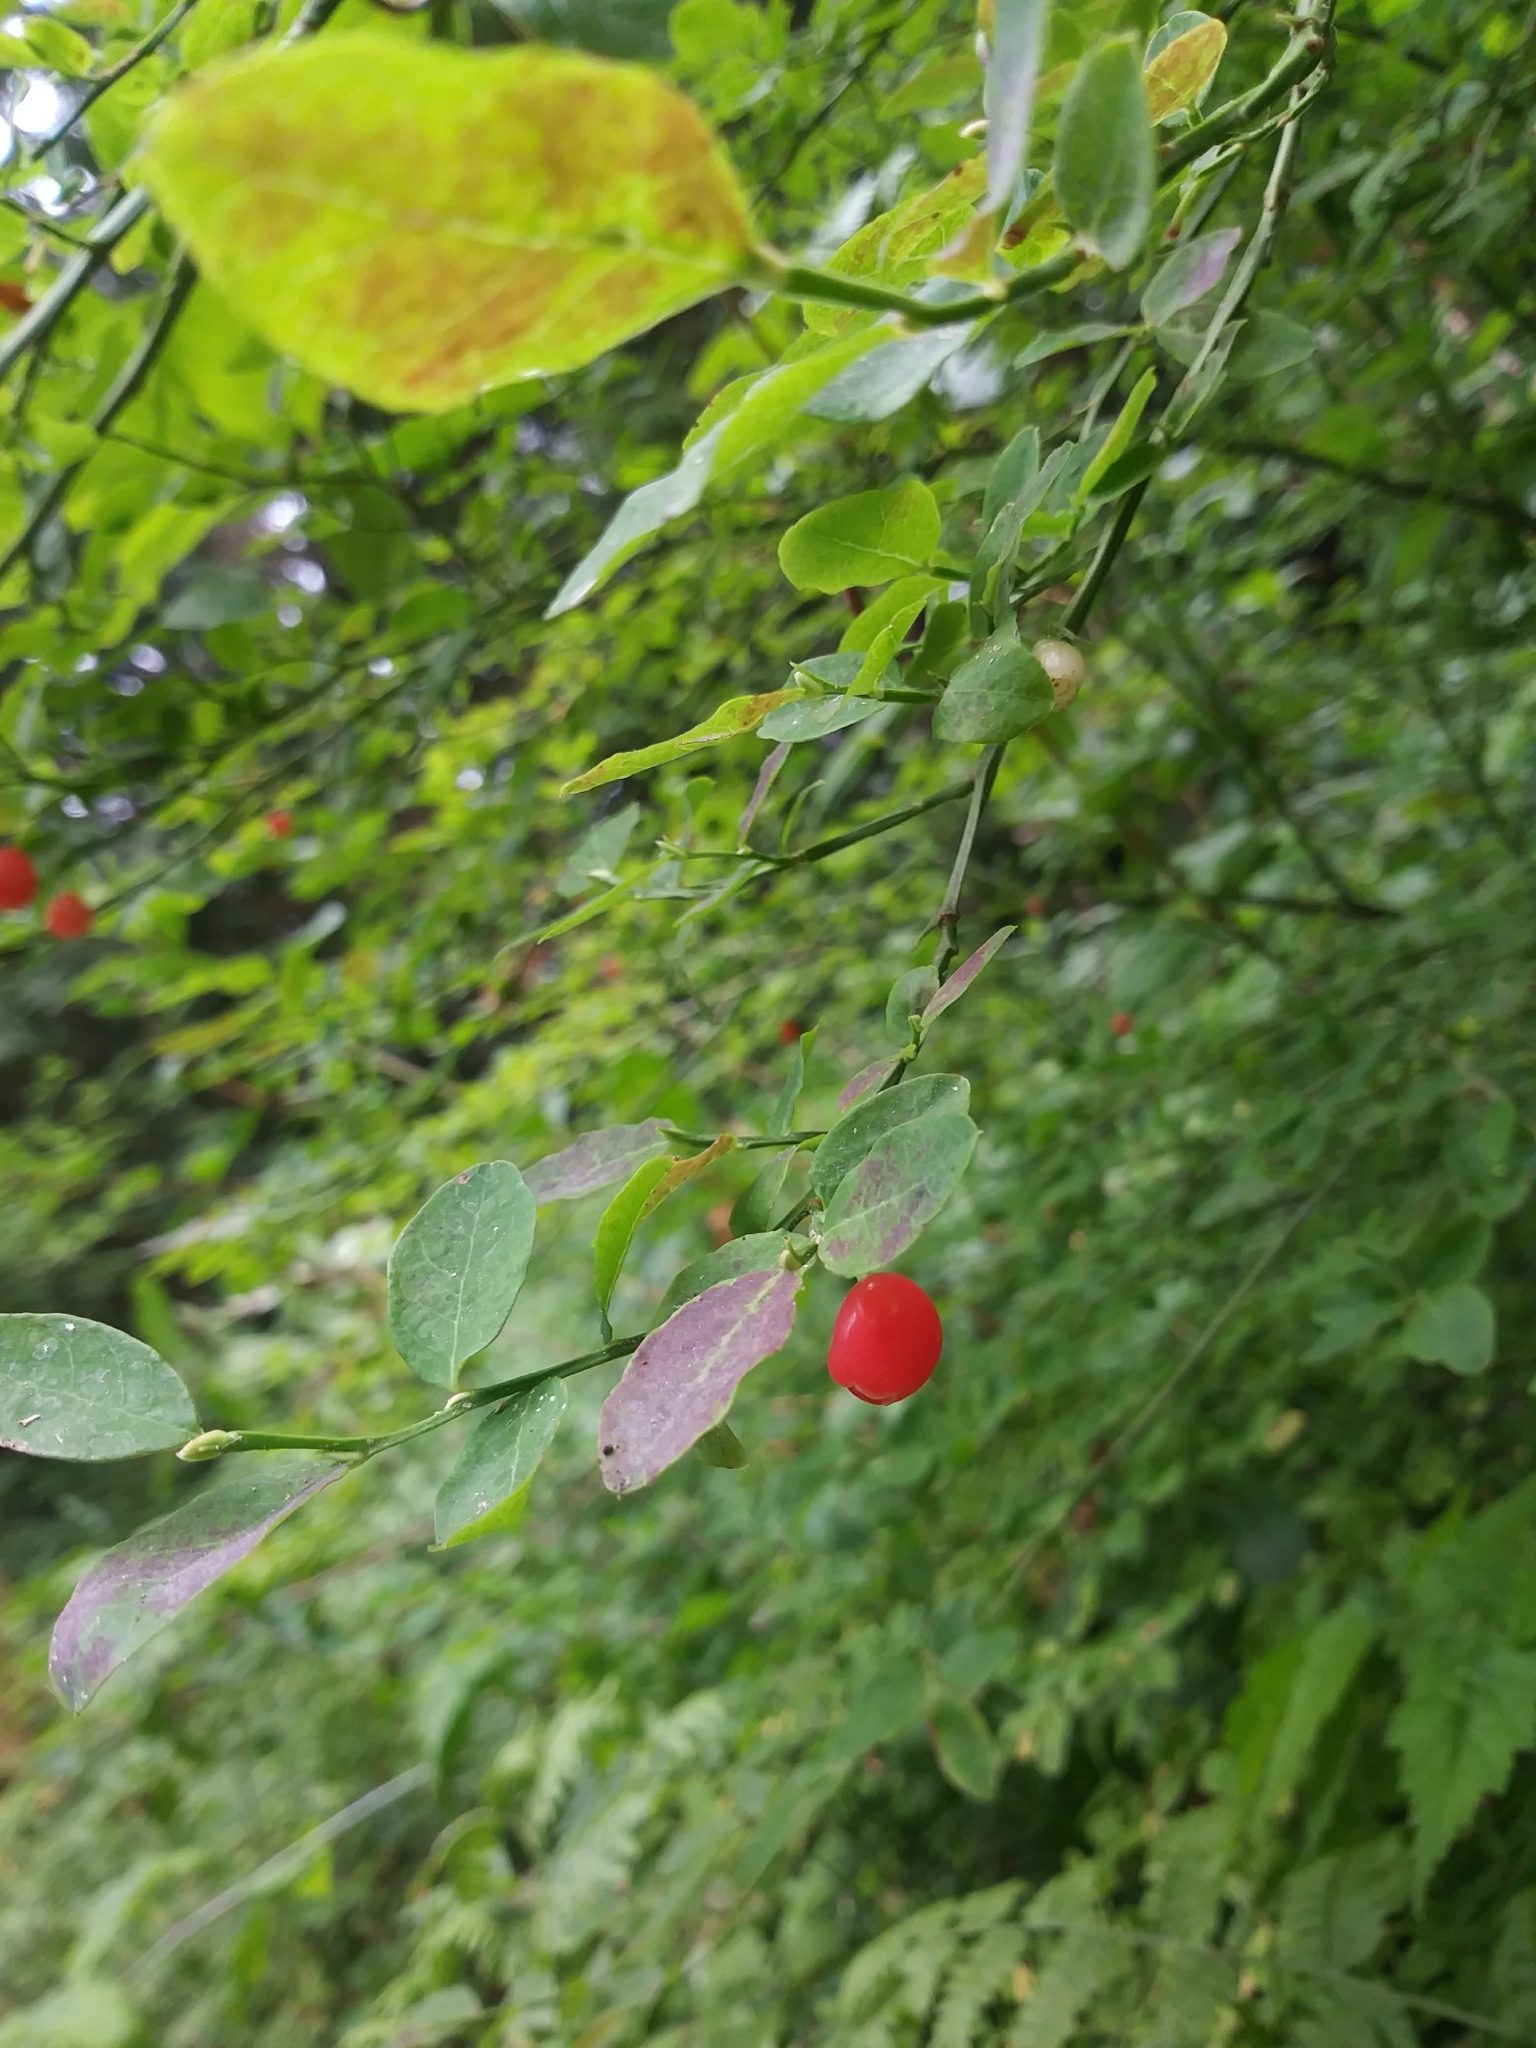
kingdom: Plantae
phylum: Tracheophyta
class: Magnoliopsida
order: Ericales
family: Ericaceae
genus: Vaccinium
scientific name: Vaccinium parvifolium
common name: Red-huckleberry
